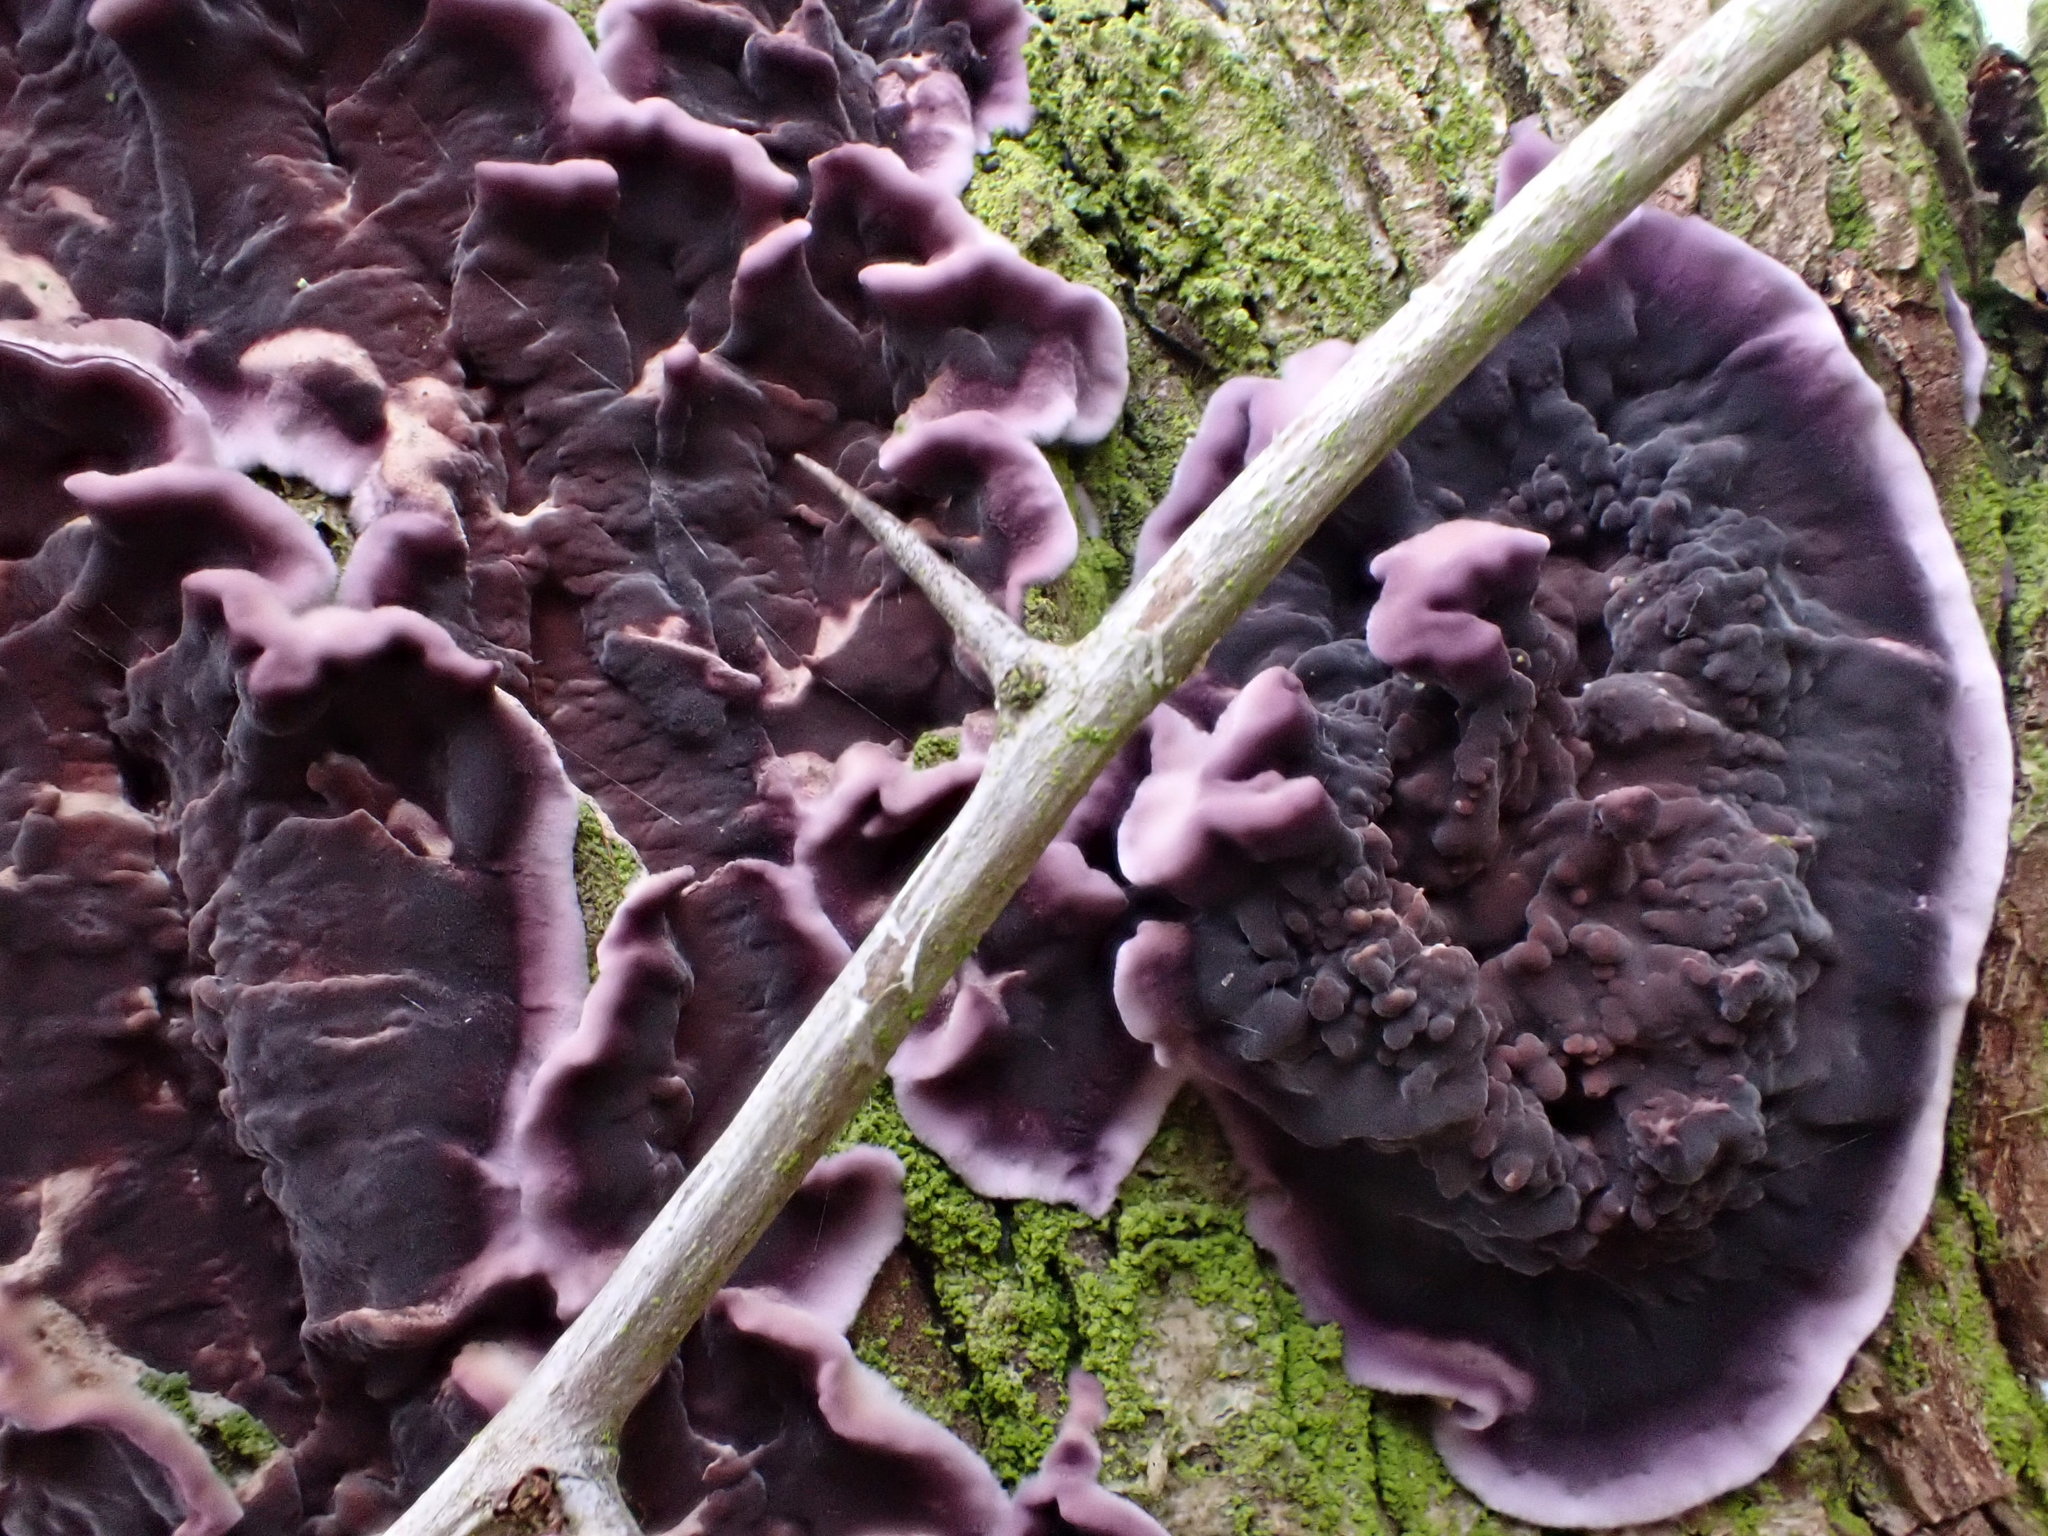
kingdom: Fungi
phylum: Basidiomycota
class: Agaricomycetes
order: Agaricales
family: Cyphellaceae
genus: Chondrostereum
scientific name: Chondrostereum purpureum
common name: Silver leaf disease
